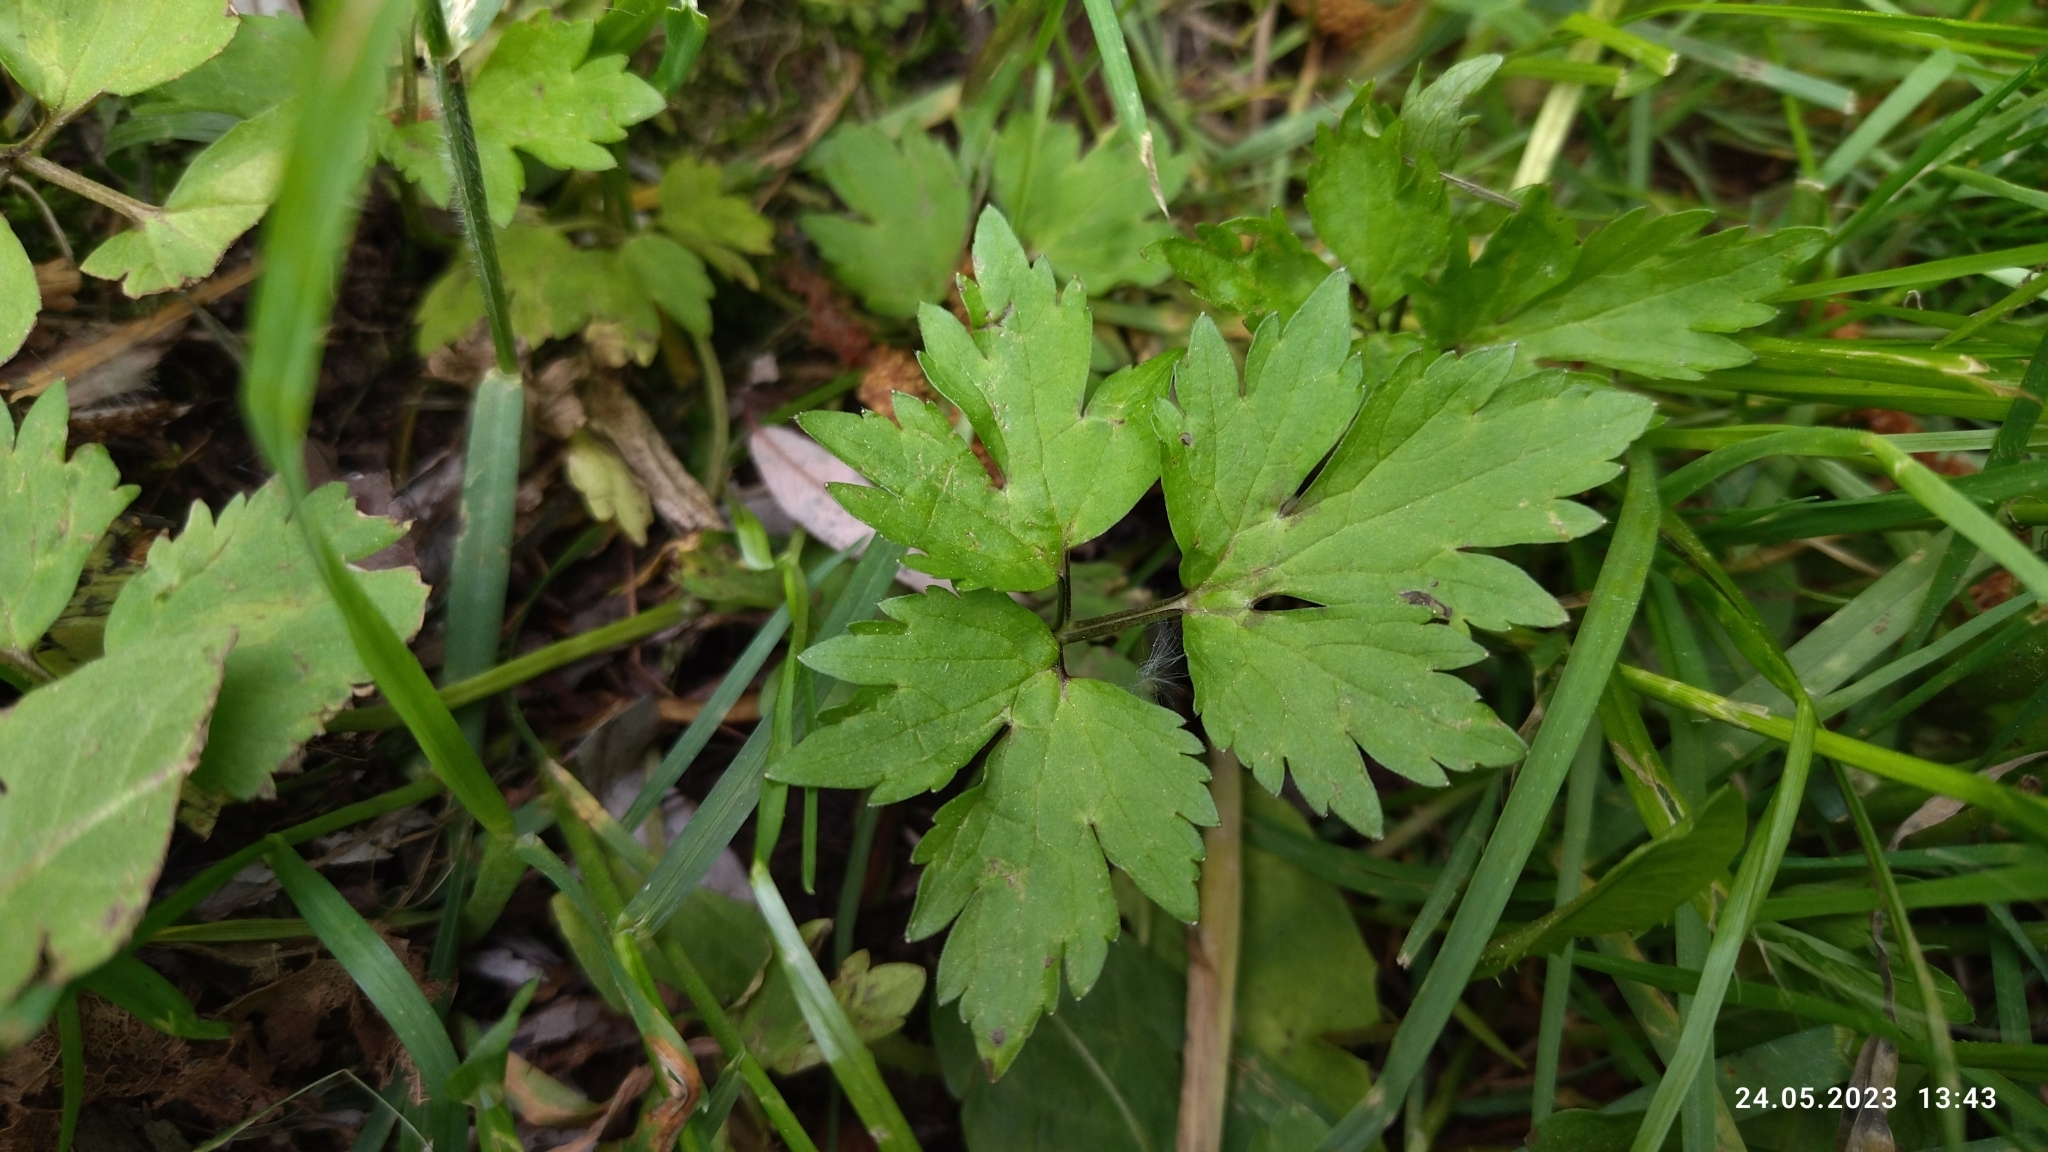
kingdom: Plantae
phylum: Tracheophyta
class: Magnoliopsida
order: Ranunculales
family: Ranunculaceae
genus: Ranunculus
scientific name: Ranunculus repens
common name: Creeping buttercup
